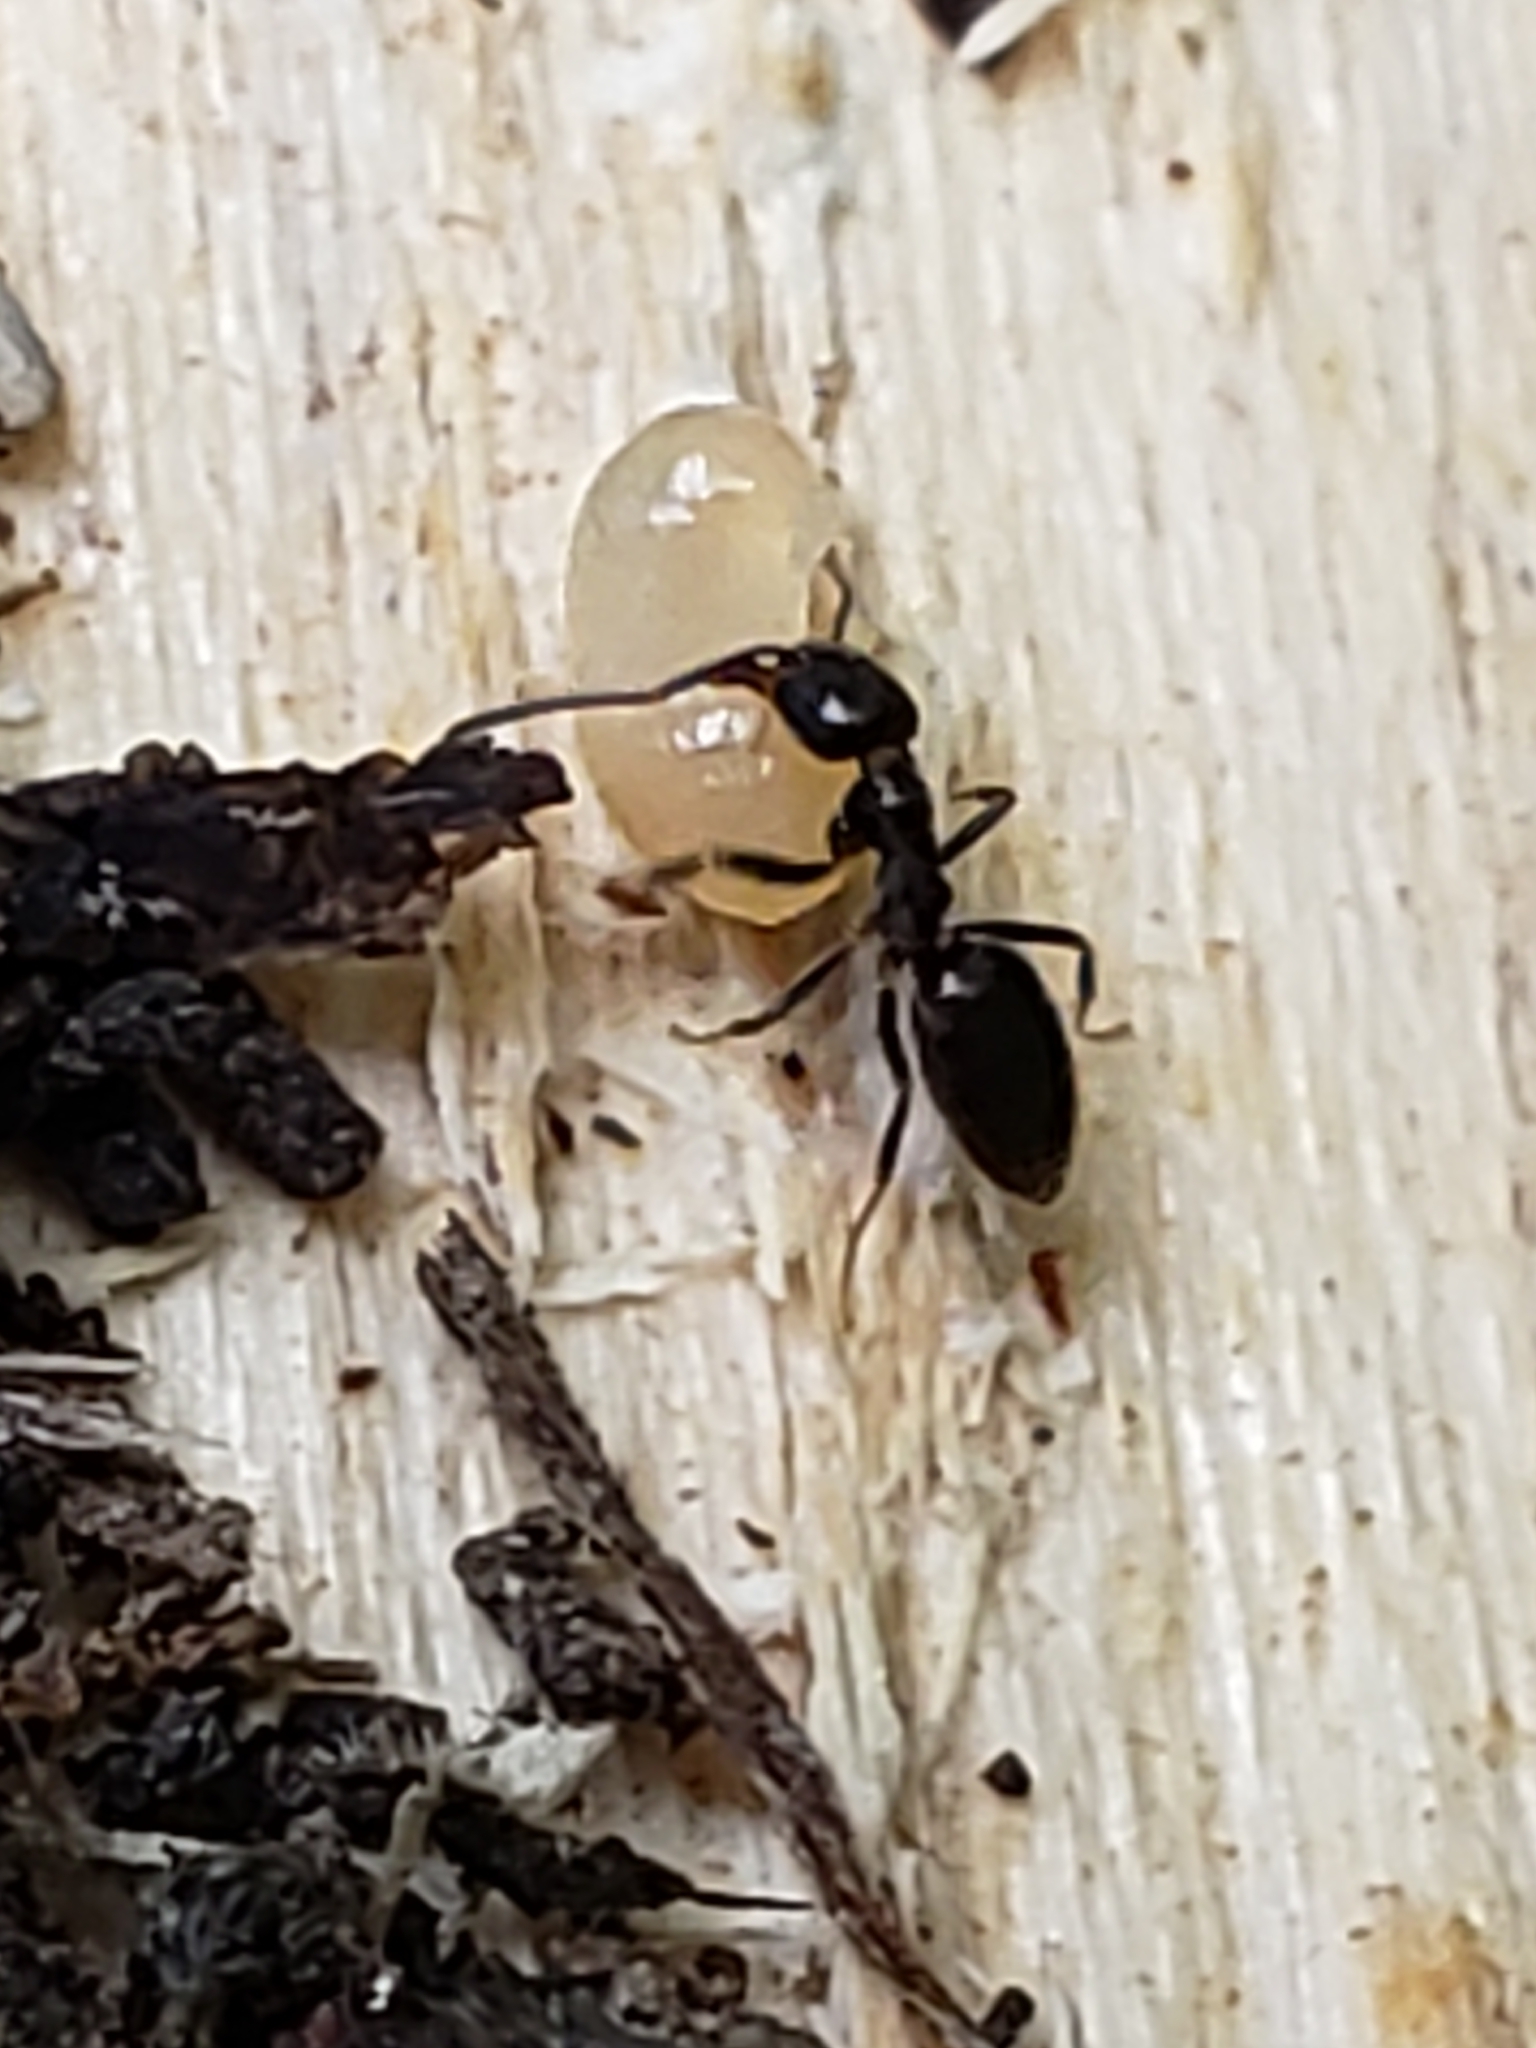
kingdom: Animalia
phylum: Arthropoda
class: Insecta
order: Hymenoptera
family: Formicidae
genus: Tapinoma
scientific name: Tapinoma sessile
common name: Odorous house ant
